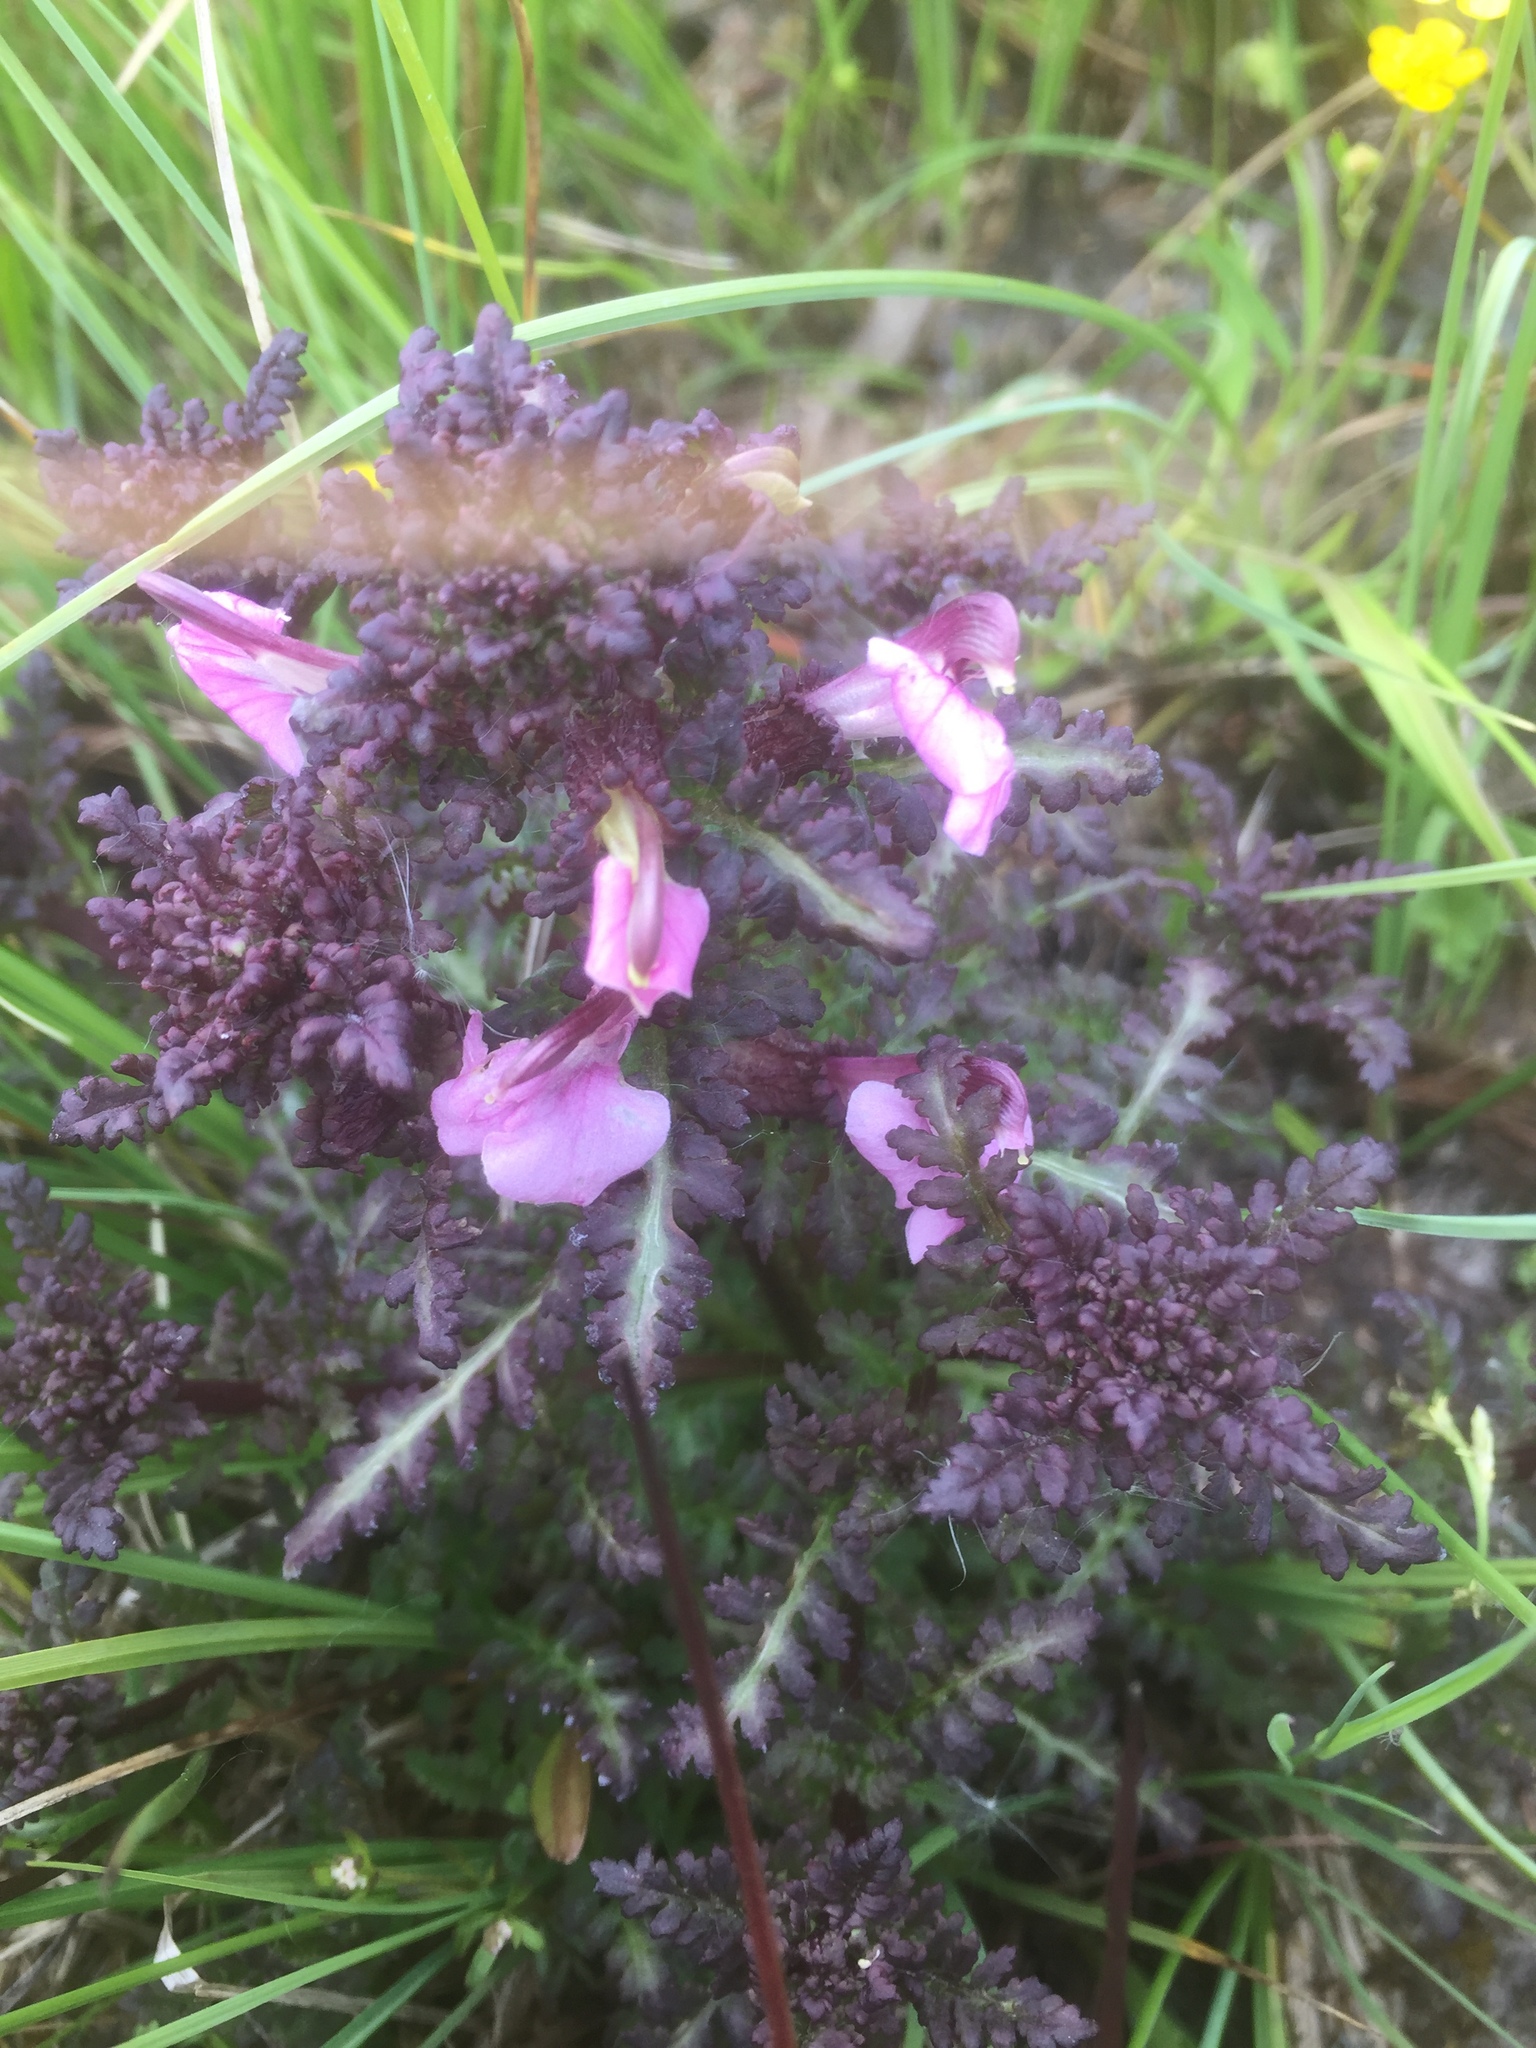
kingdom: Plantae
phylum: Tracheophyta
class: Magnoliopsida
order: Lamiales
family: Orobanchaceae
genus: Pedicularis
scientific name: Pedicularis palustris
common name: Marsh lousewort
